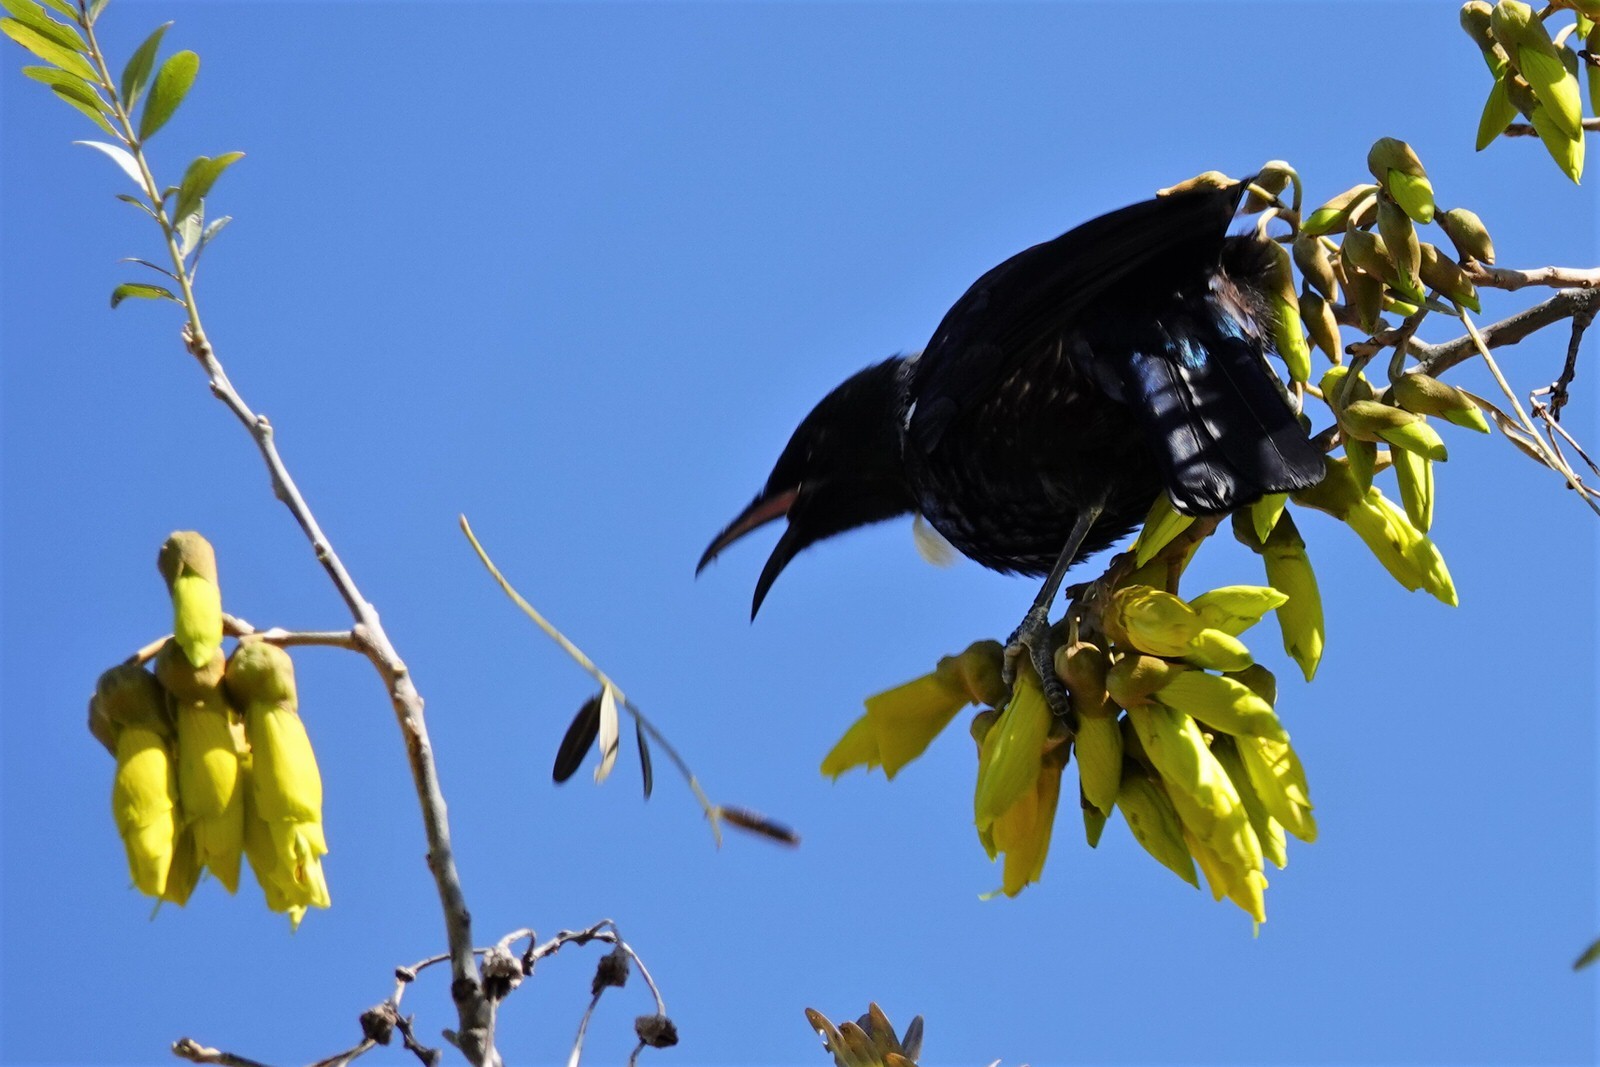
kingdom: Animalia
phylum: Chordata
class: Aves
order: Passeriformes
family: Meliphagidae
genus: Prosthemadera
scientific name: Prosthemadera novaeseelandiae
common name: Tui
